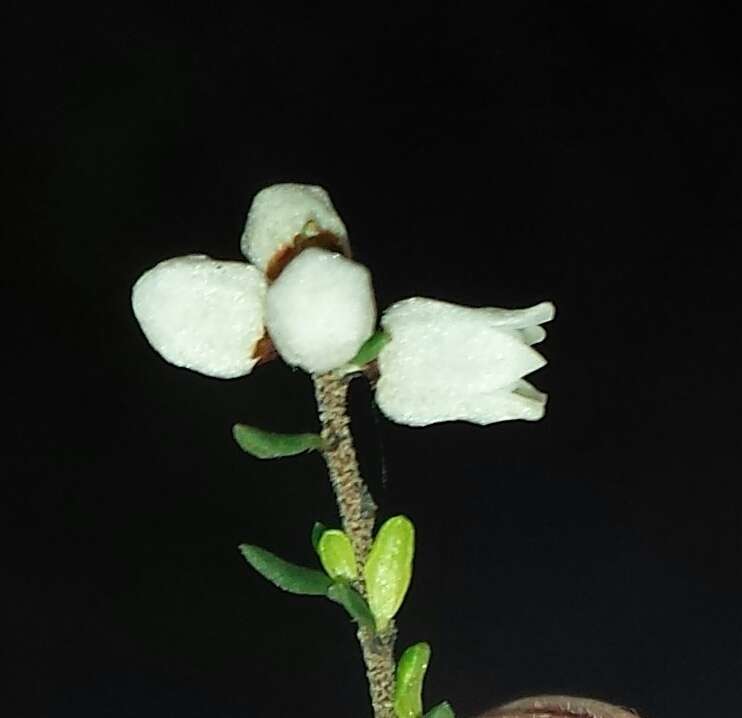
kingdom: Plantae
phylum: Tracheophyta
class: Magnoliopsida
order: Rosales
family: Rhamnaceae
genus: Cryptandra
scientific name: Cryptandra amara
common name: Bitter cryptandra
